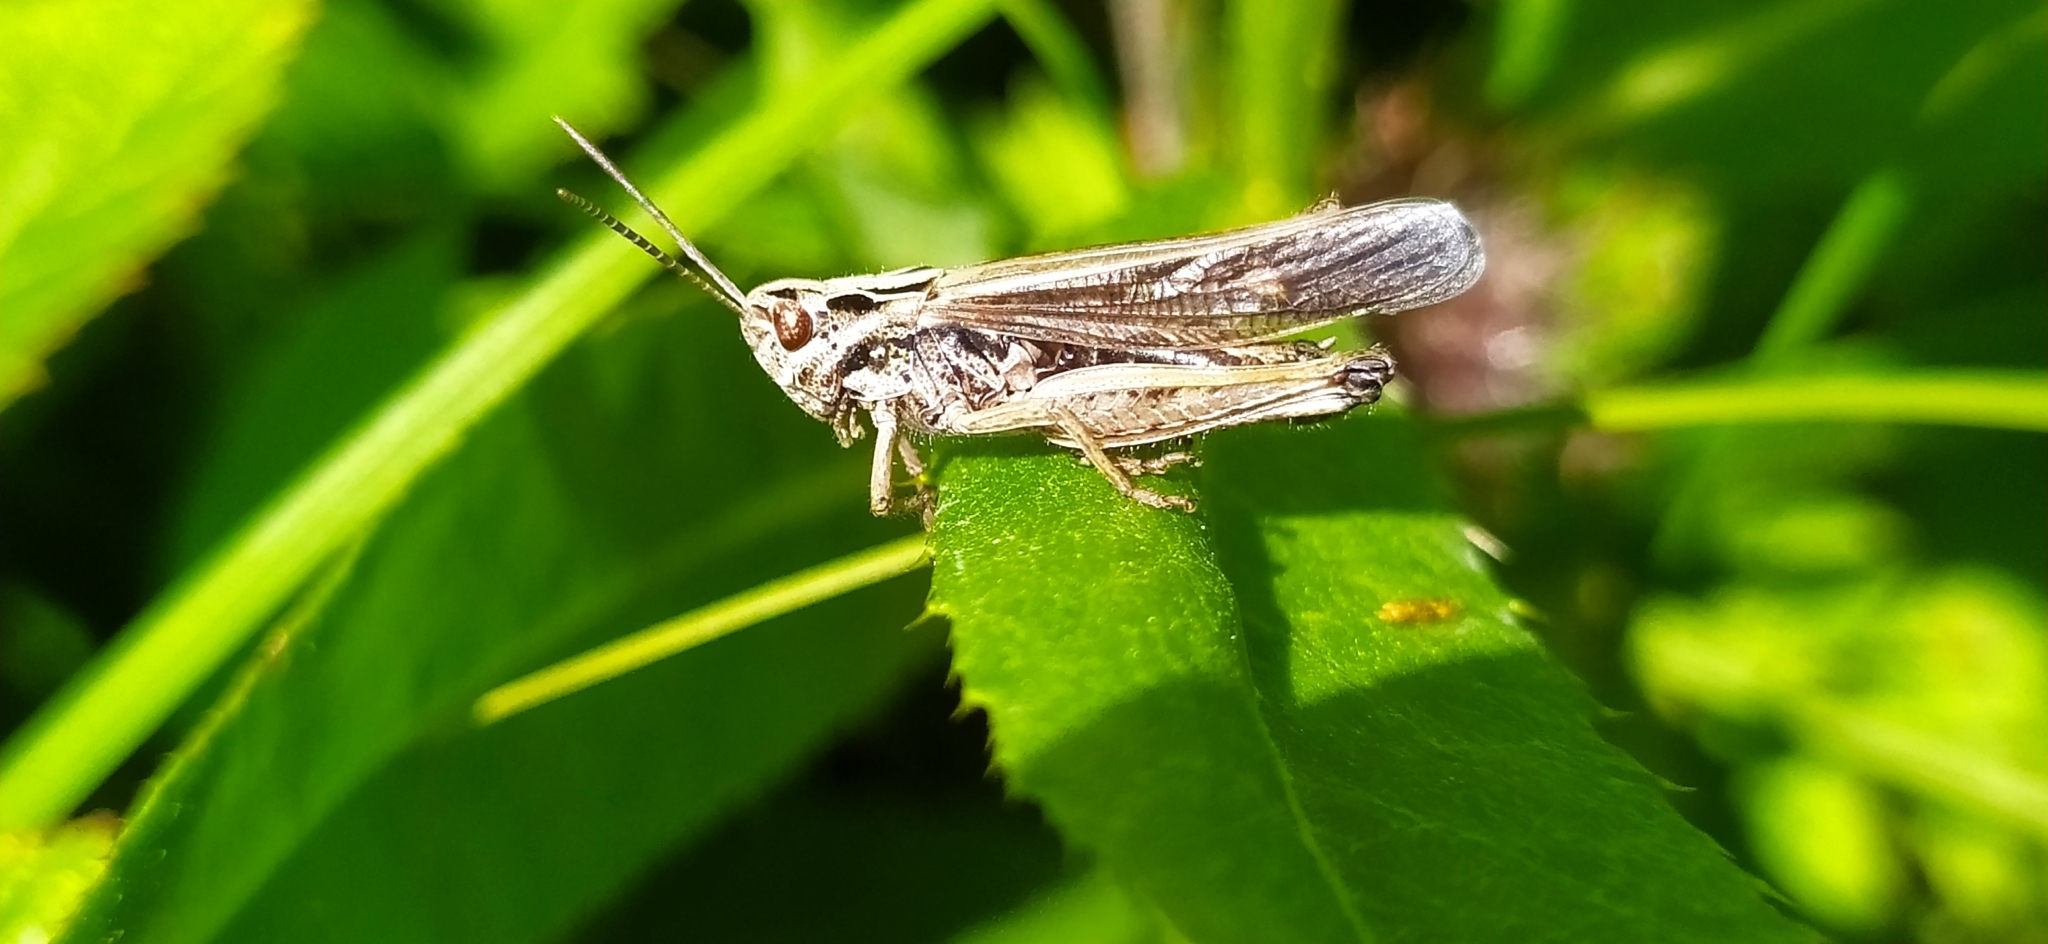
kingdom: Animalia
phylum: Arthropoda
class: Insecta
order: Orthoptera
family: Acrididae
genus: Omocestus
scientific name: Omocestus viridulus
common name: Common green grasshopper
